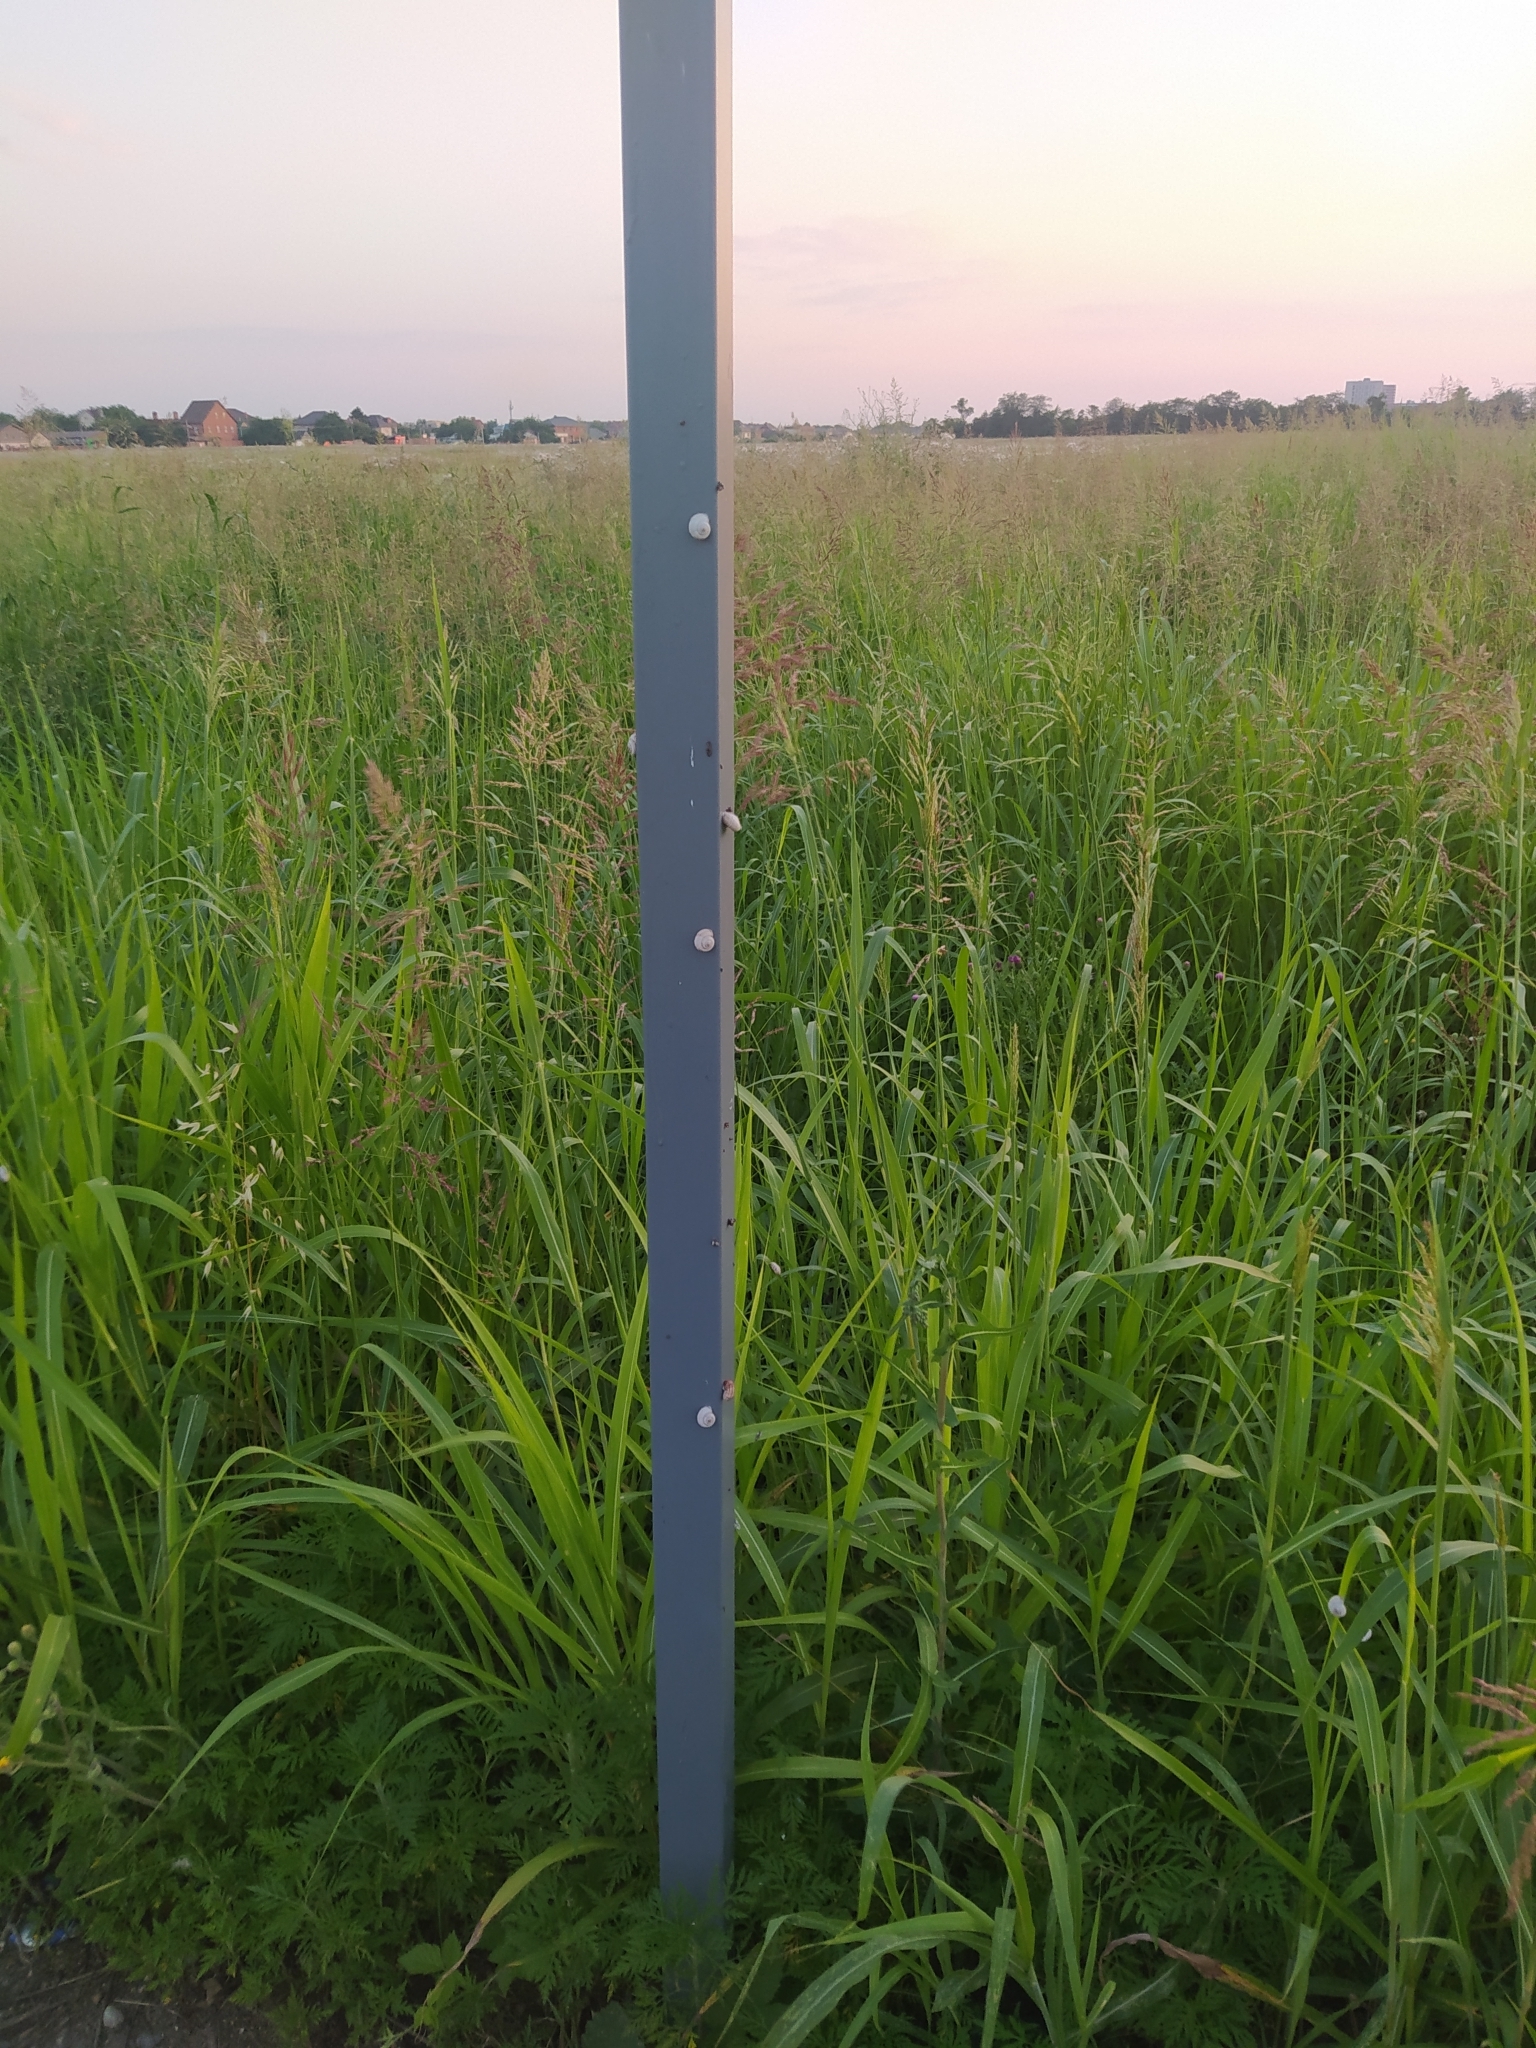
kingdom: Animalia
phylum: Mollusca
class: Gastropoda
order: Stylommatophora
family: Geomitridae
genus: Xeropicta
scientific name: Xeropicta derbentina
